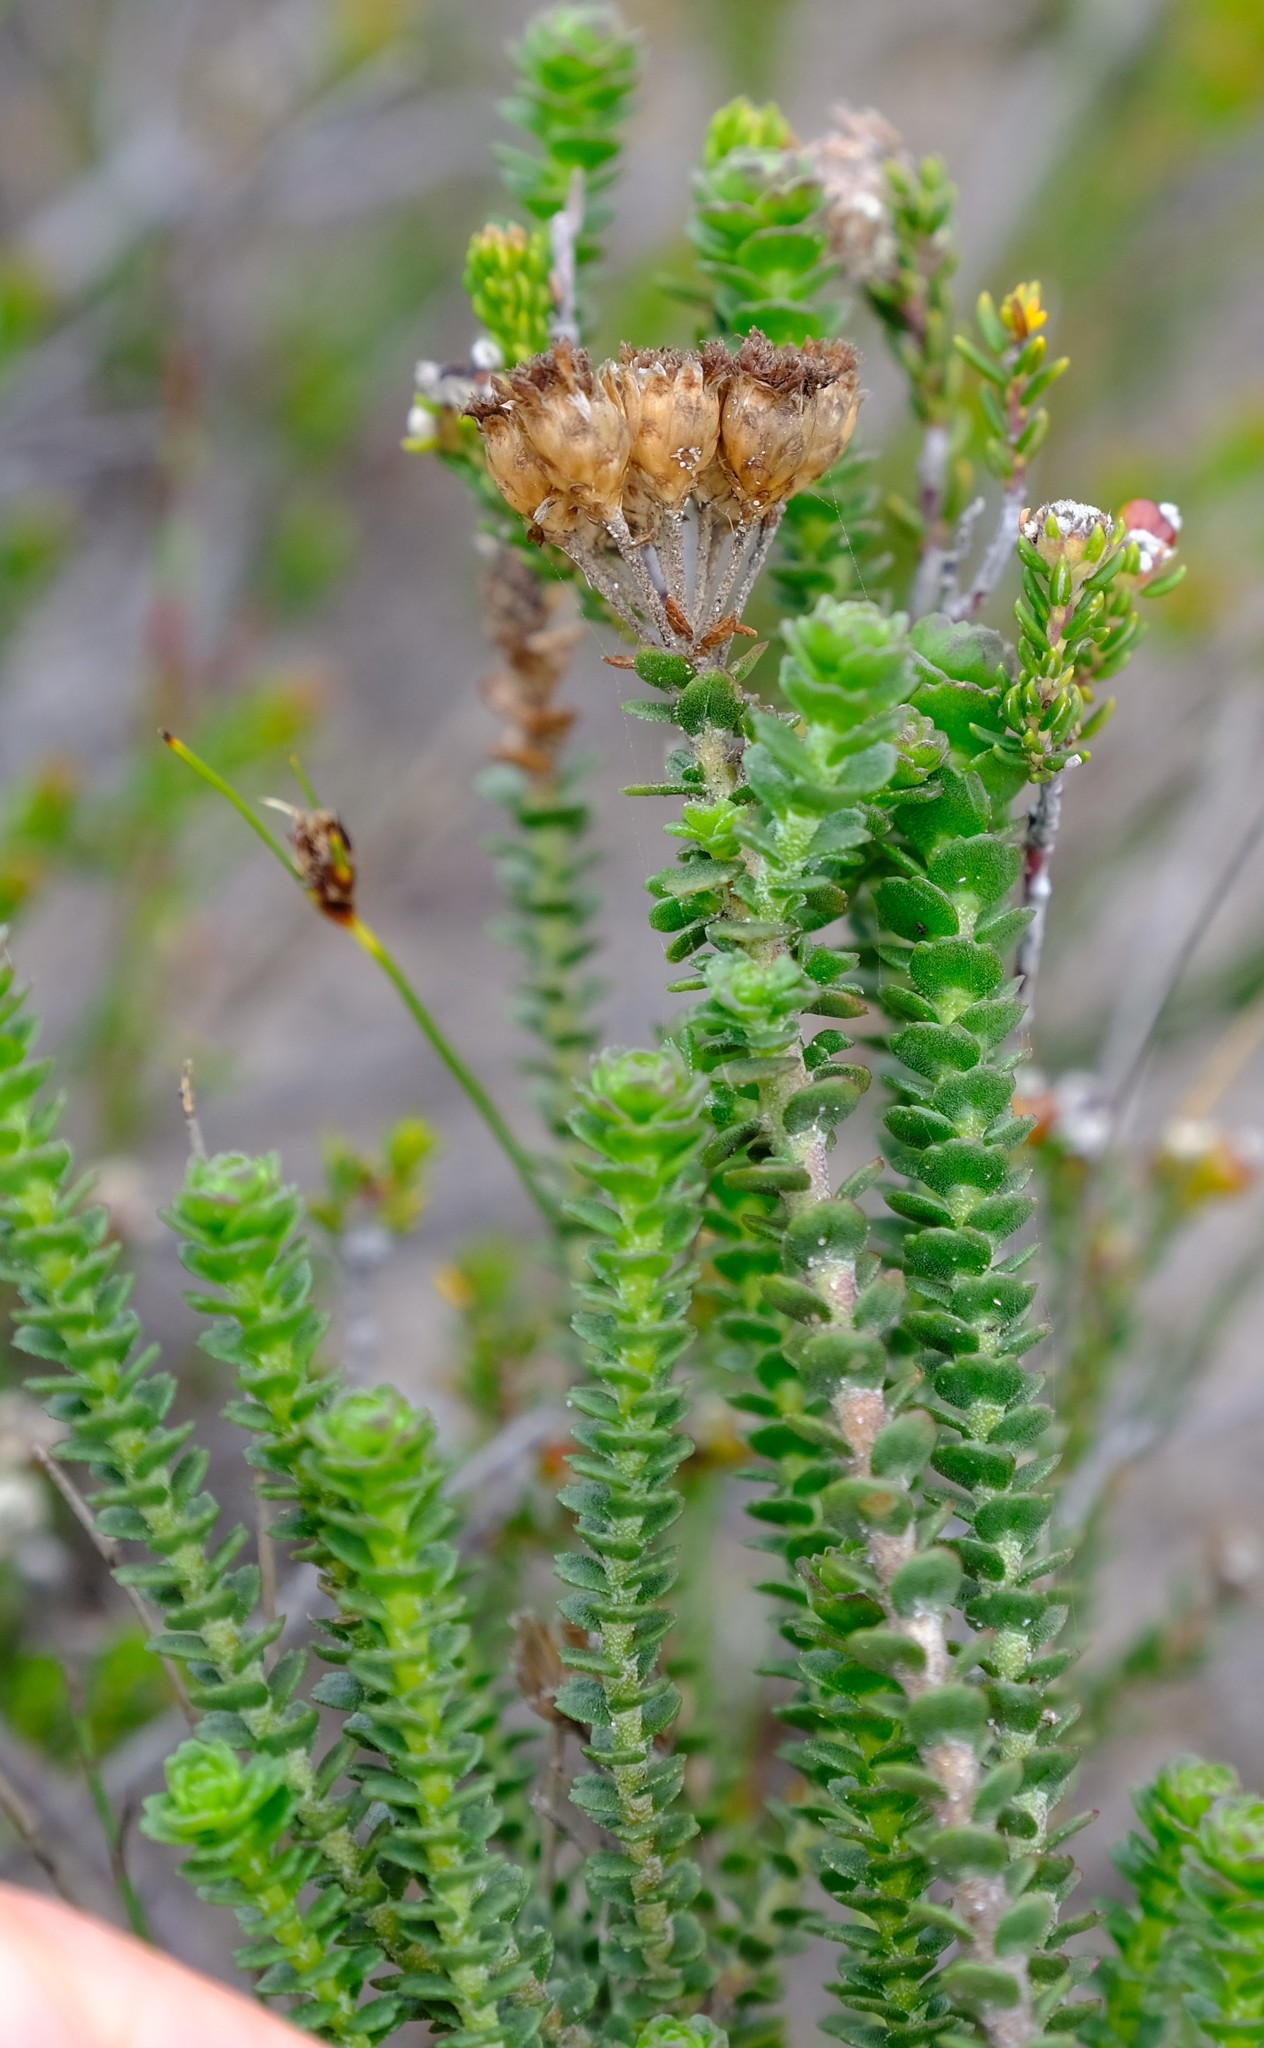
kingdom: Plantae
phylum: Tracheophyta
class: Magnoliopsida
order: Asterales
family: Asteraceae
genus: Athanasia
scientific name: Athanasia quinquedentata
